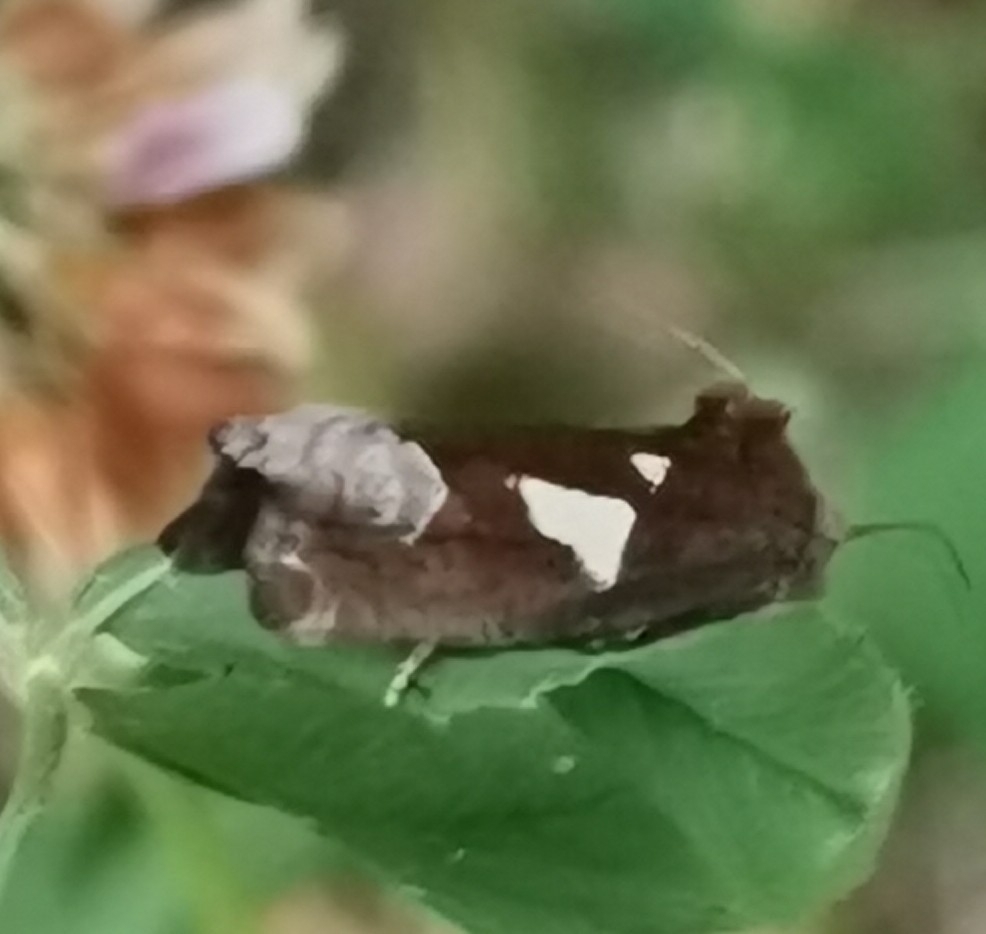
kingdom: Animalia
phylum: Arthropoda
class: Insecta
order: Lepidoptera
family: Tortricidae
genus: Epiblema
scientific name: Epiblema foenella
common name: White-foot bell
